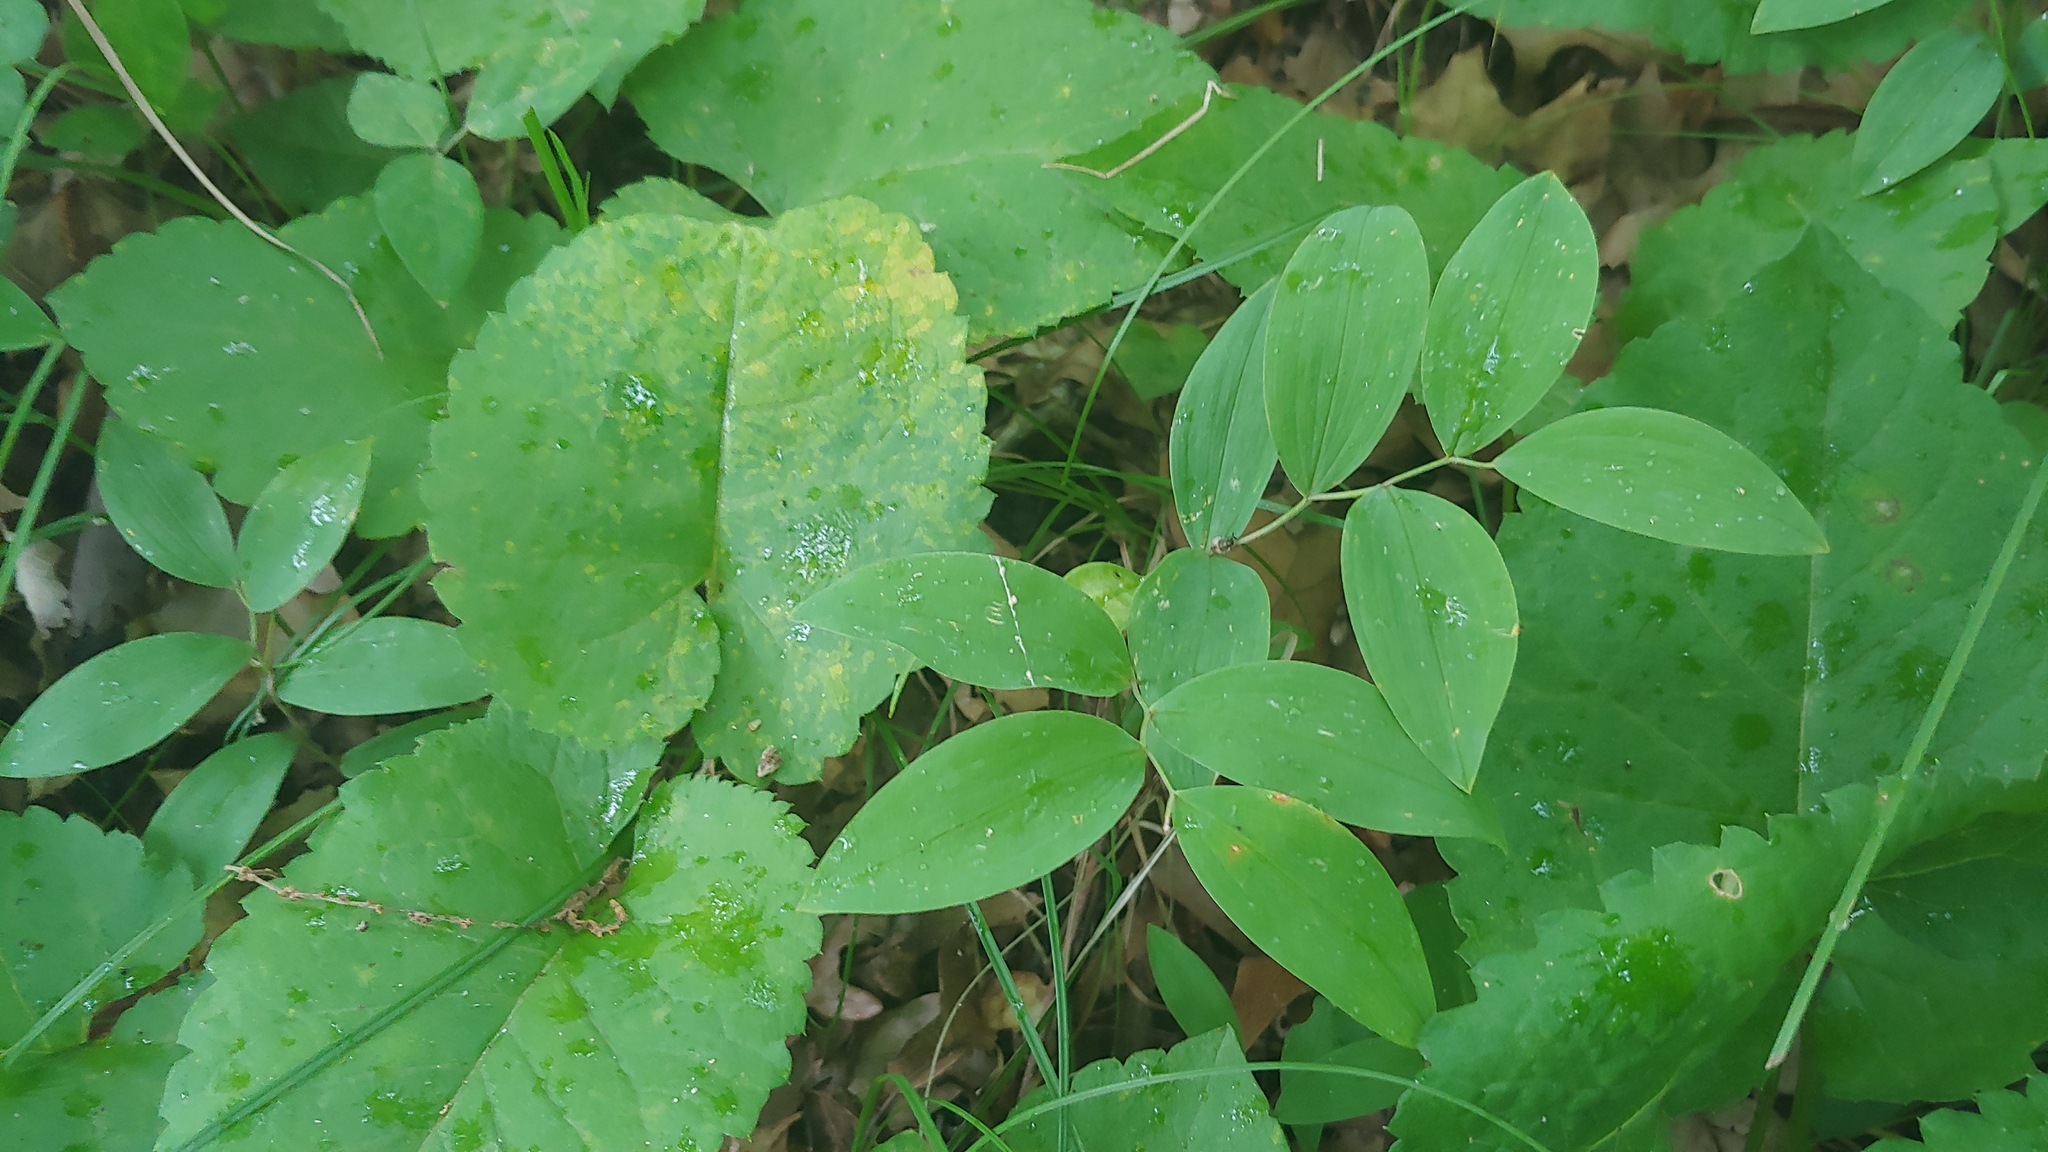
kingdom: Plantae
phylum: Tracheophyta
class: Liliopsida
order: Liliales
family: Colchicaceae
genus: Uvularia
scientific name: Uvularia sessilifolia
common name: Straw-lily
